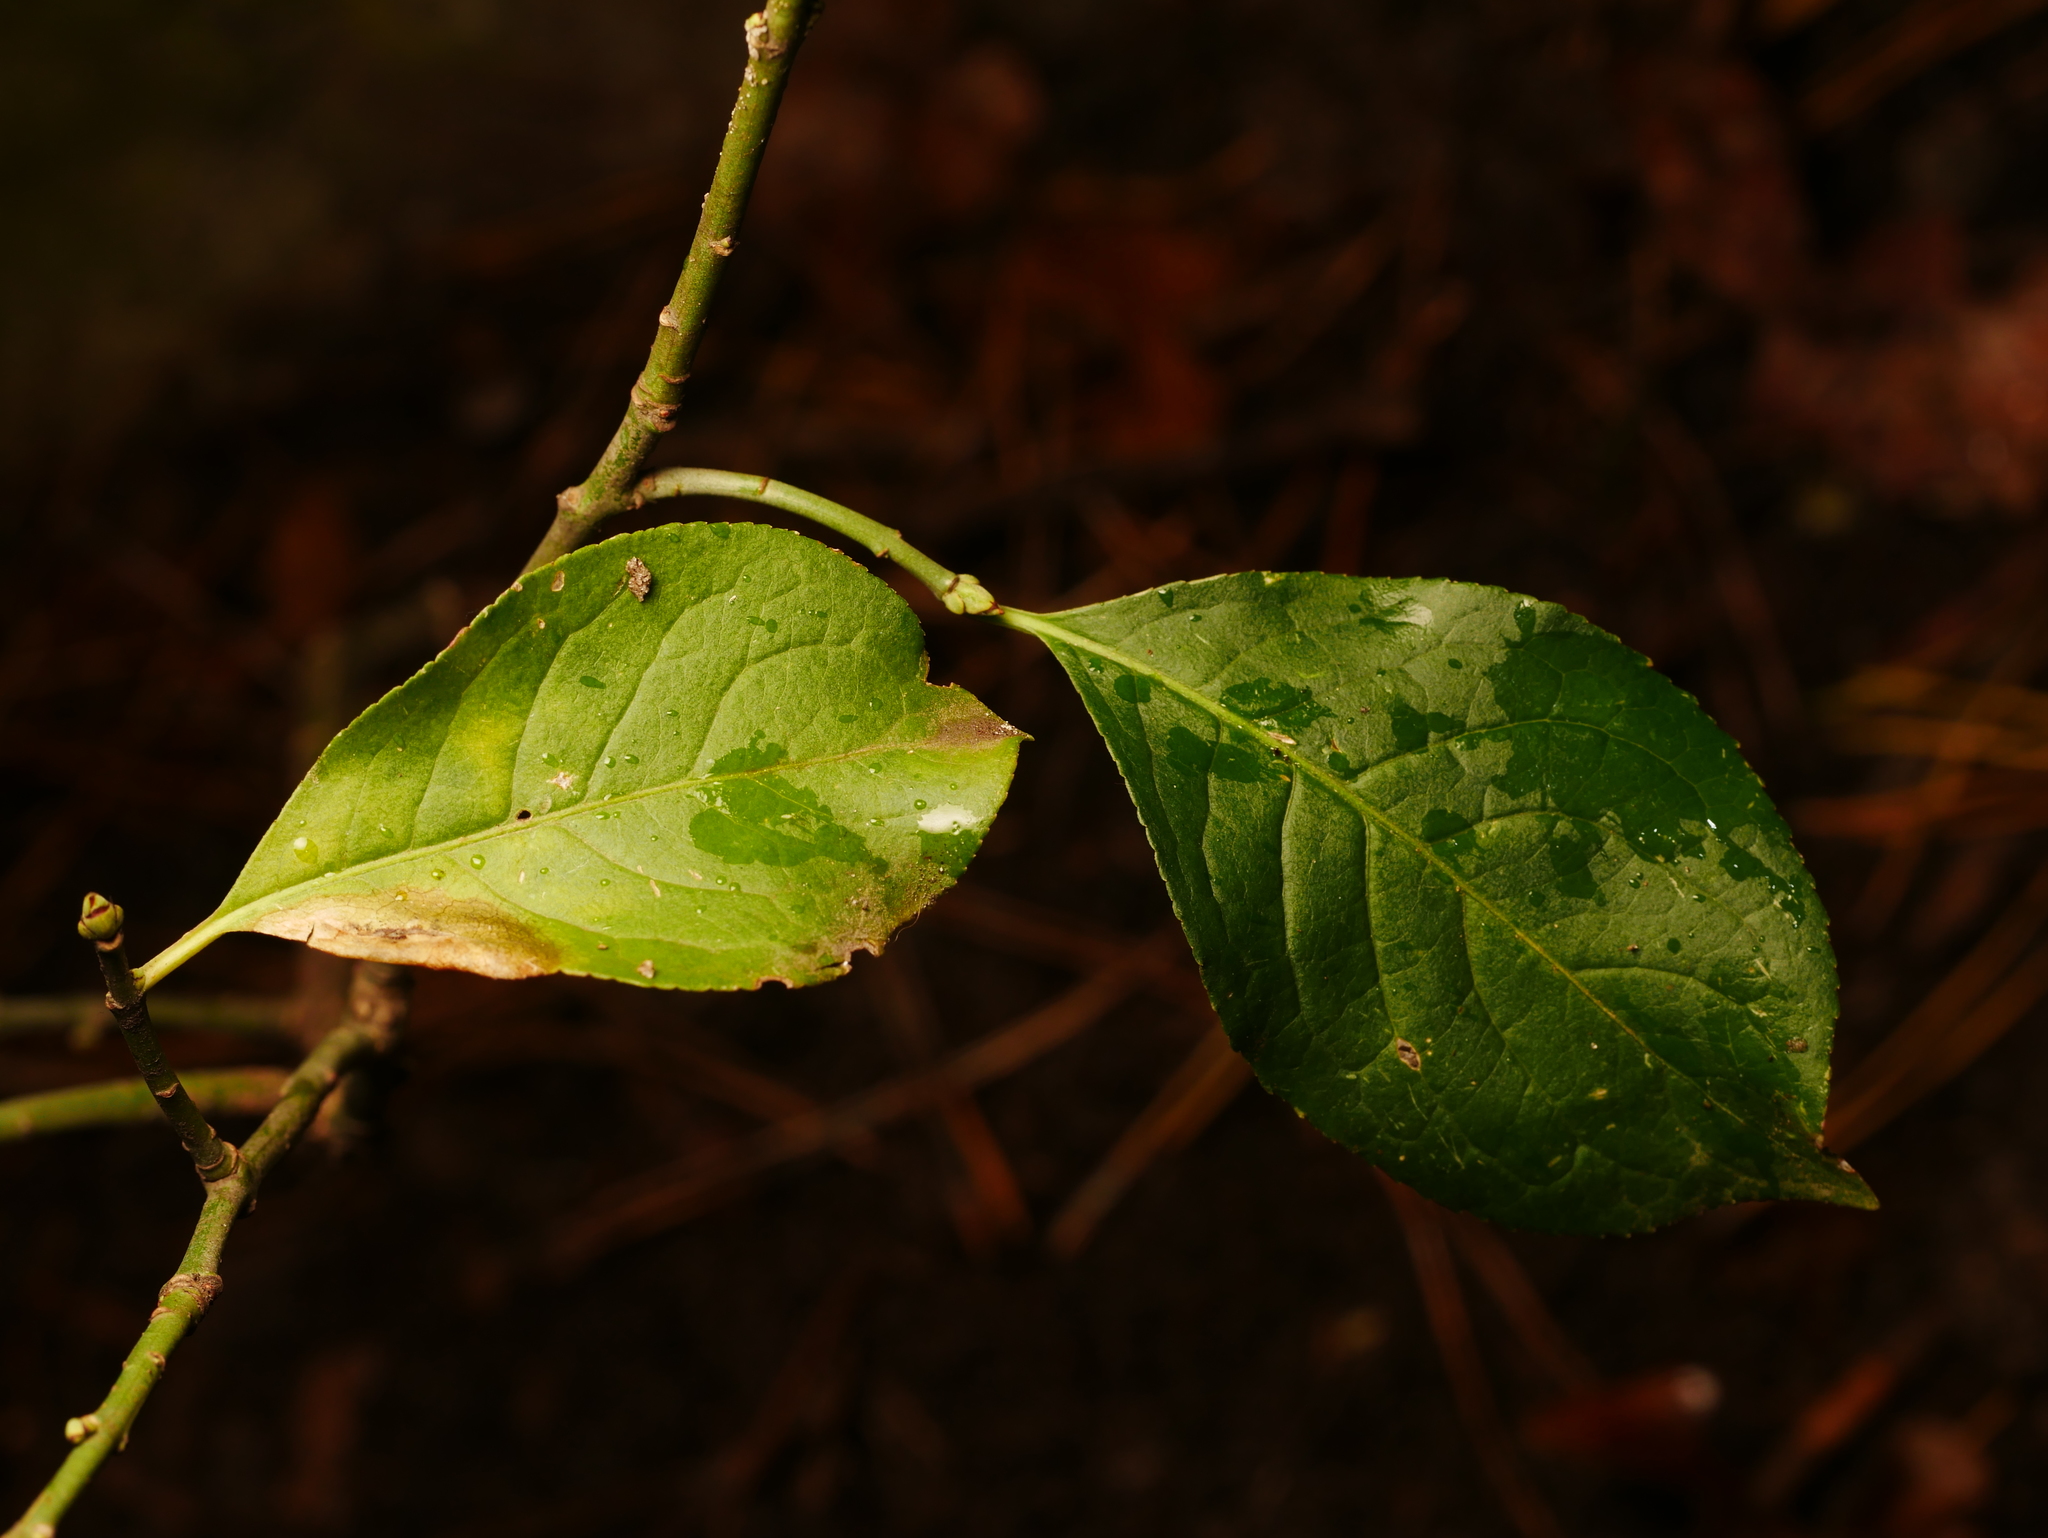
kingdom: Plantae
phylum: Tracheophyta
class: Magnoliopsida
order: Celastrales
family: Celastraceae
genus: Euonymus
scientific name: Euonymus europaeus
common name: Spindle
